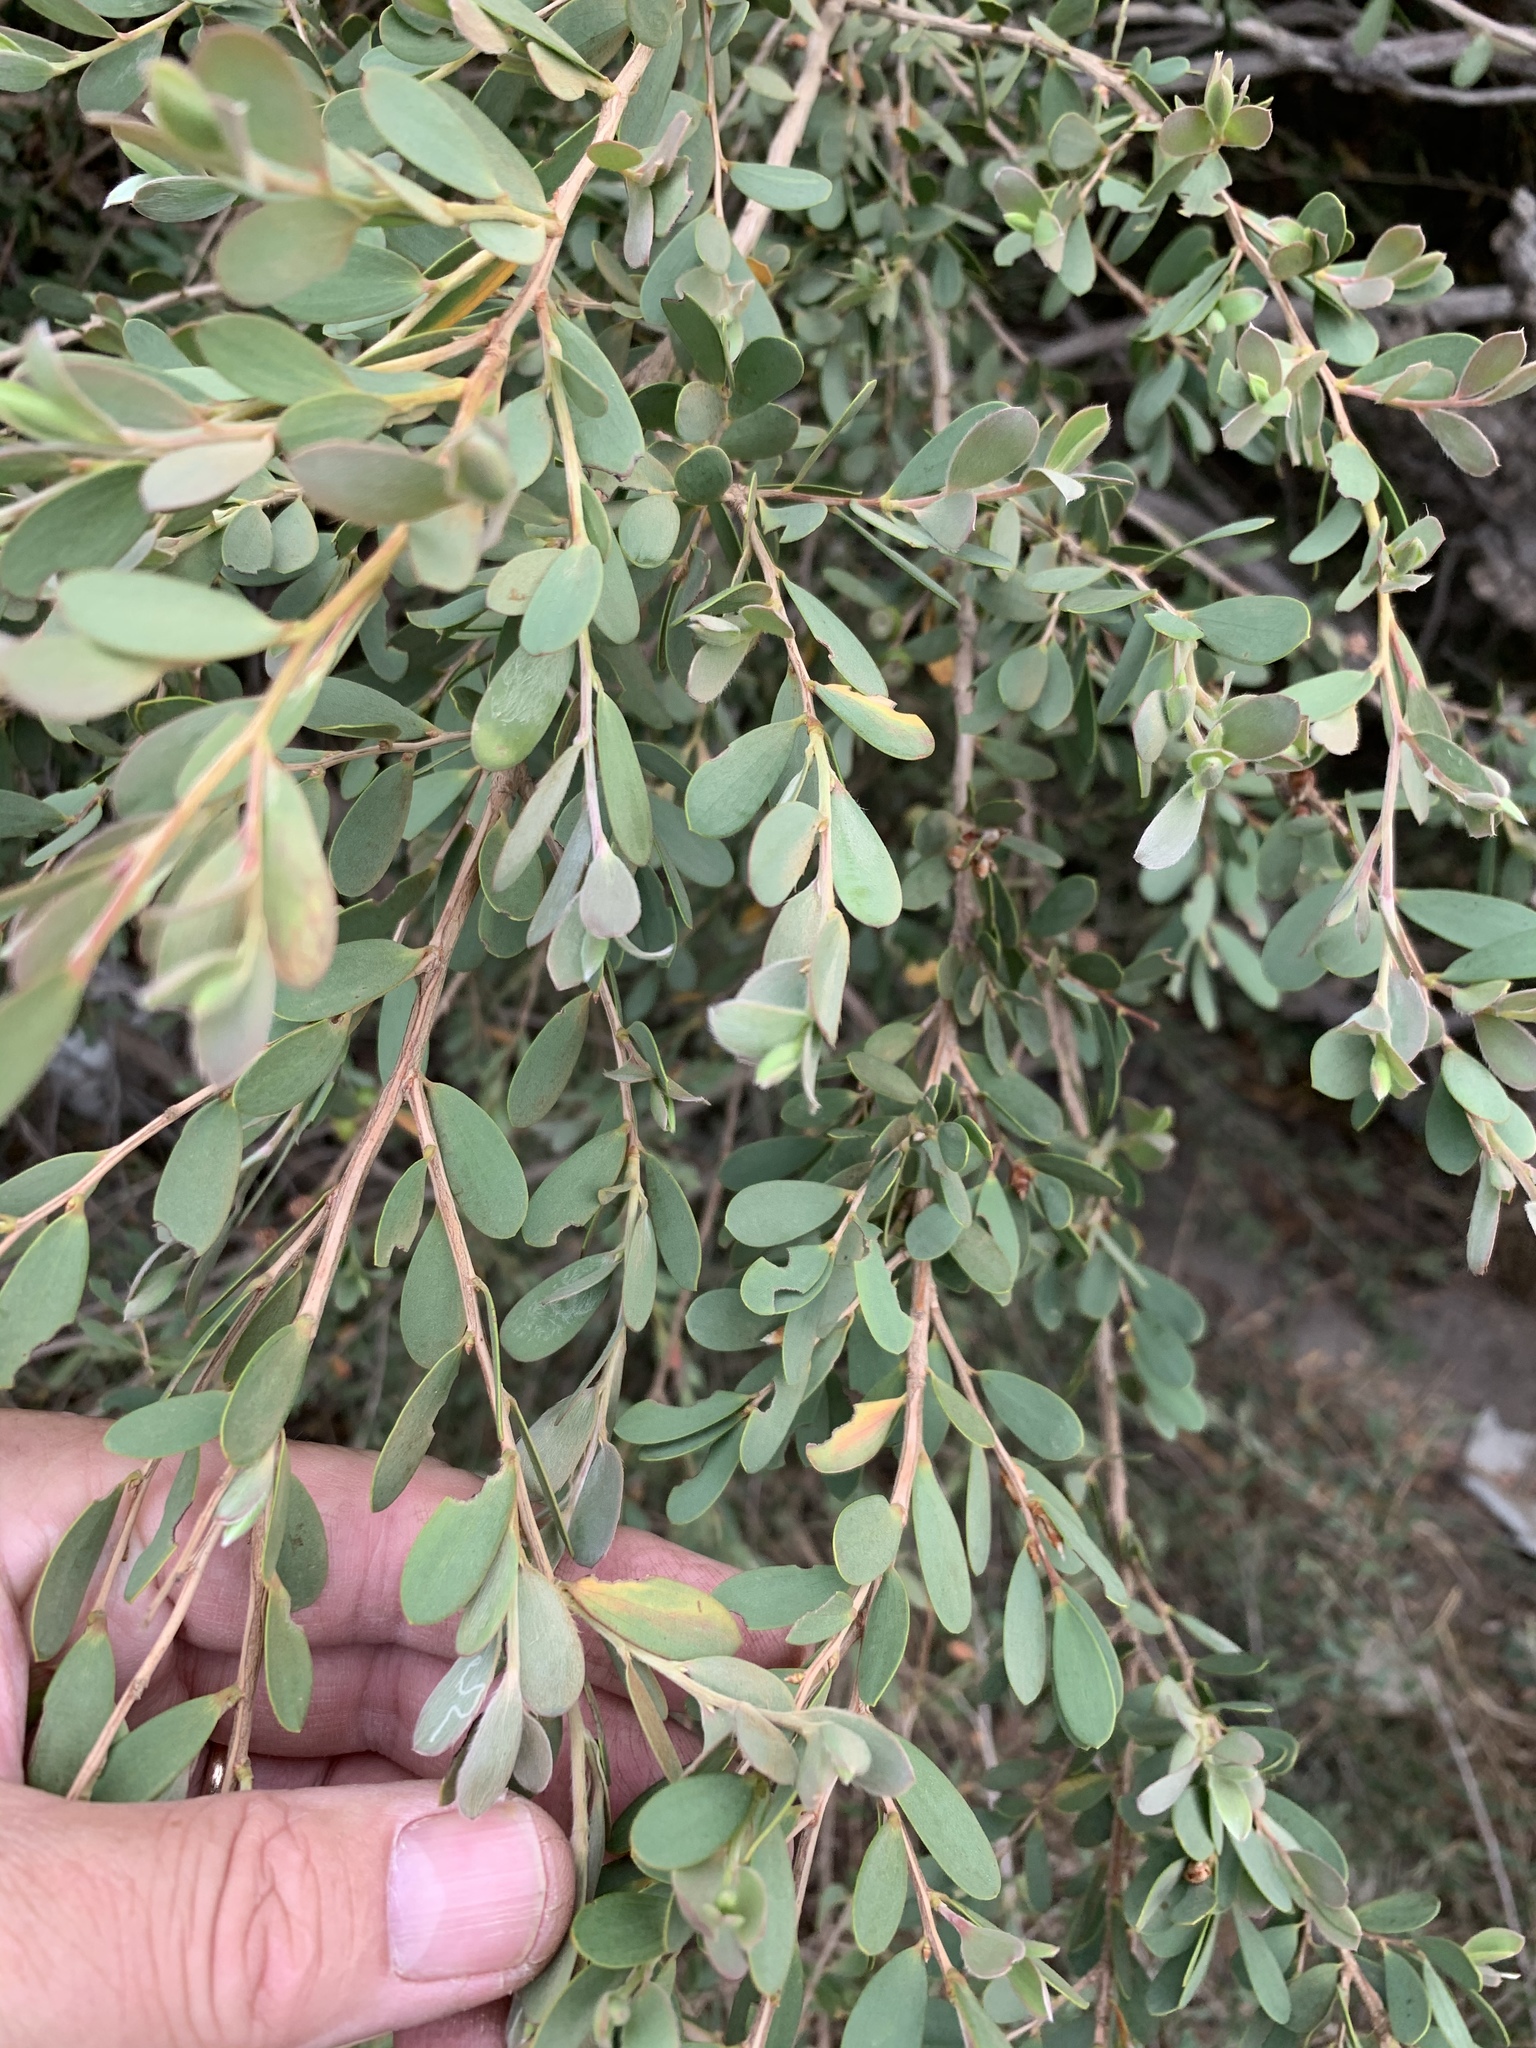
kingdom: Plantae
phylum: Tracheophyta
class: Magnoliopsida
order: Myrtales
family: Myrtaceae
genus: Leptospermum
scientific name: Leptospermum laevigatum
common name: Australian teatree
